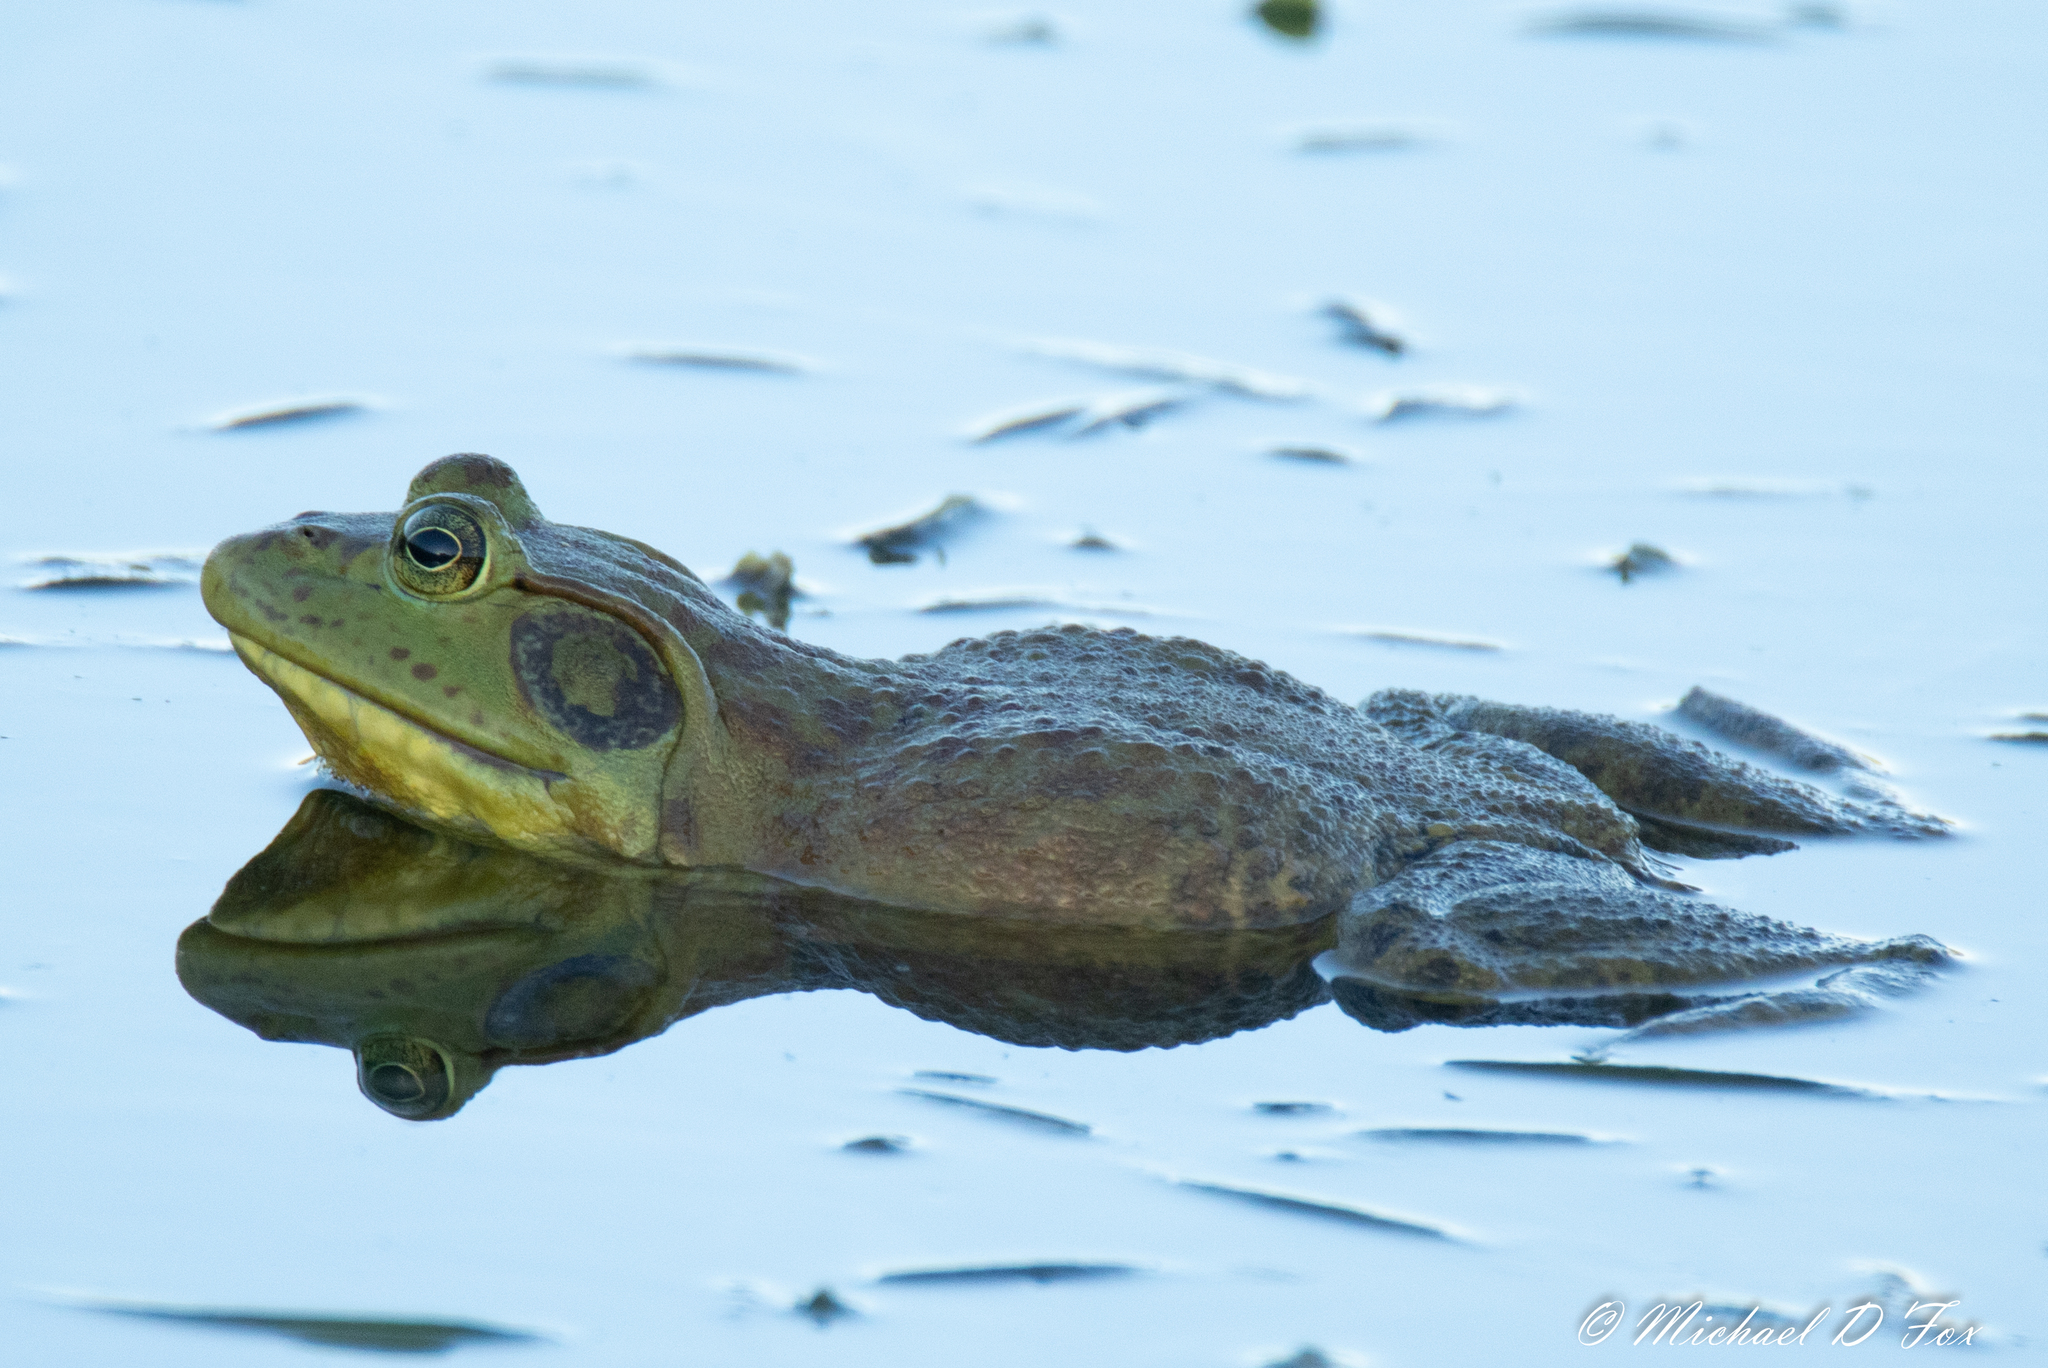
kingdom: Animalia
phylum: Chordata
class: Amphibia
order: Anura
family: Ranidae
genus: Lithobates
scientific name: Lithobates catesbeianus
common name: American bullfrog
